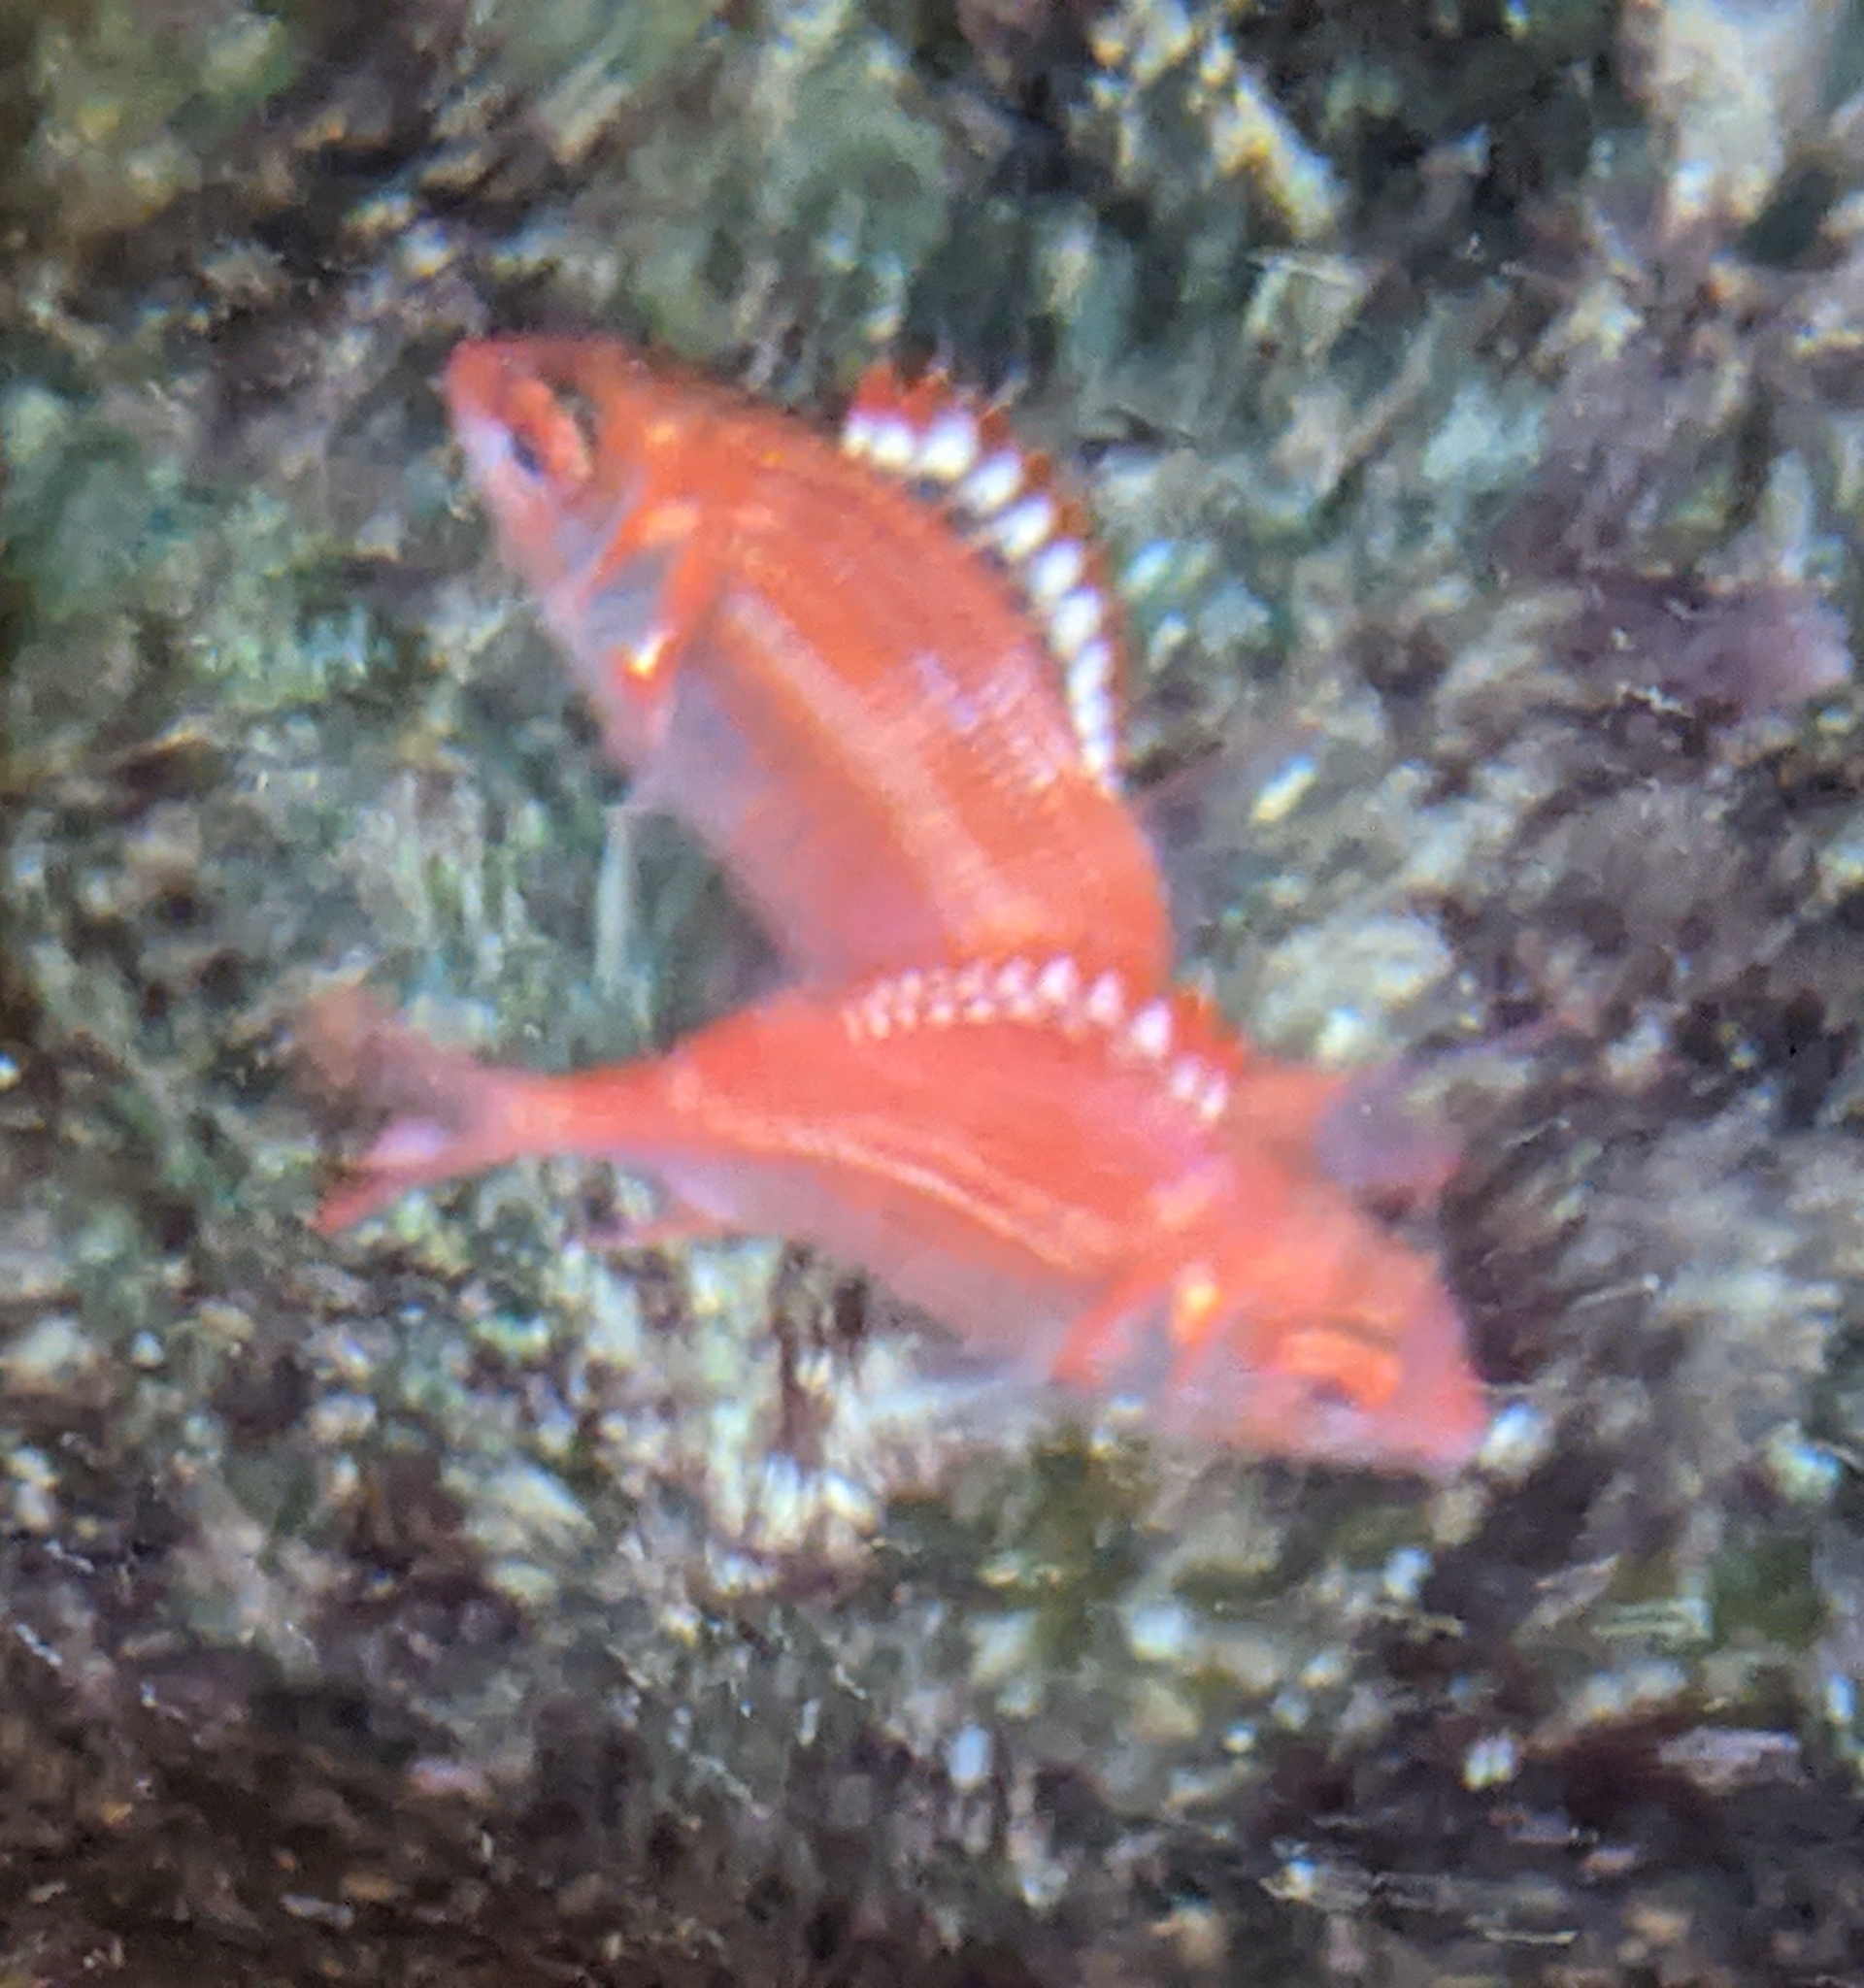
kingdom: Animalia
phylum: Chordata
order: Beryciformes
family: Holocentridae
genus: Sargocentron
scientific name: Sargocentron punctatissimum
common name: Peppered squirrelfish
